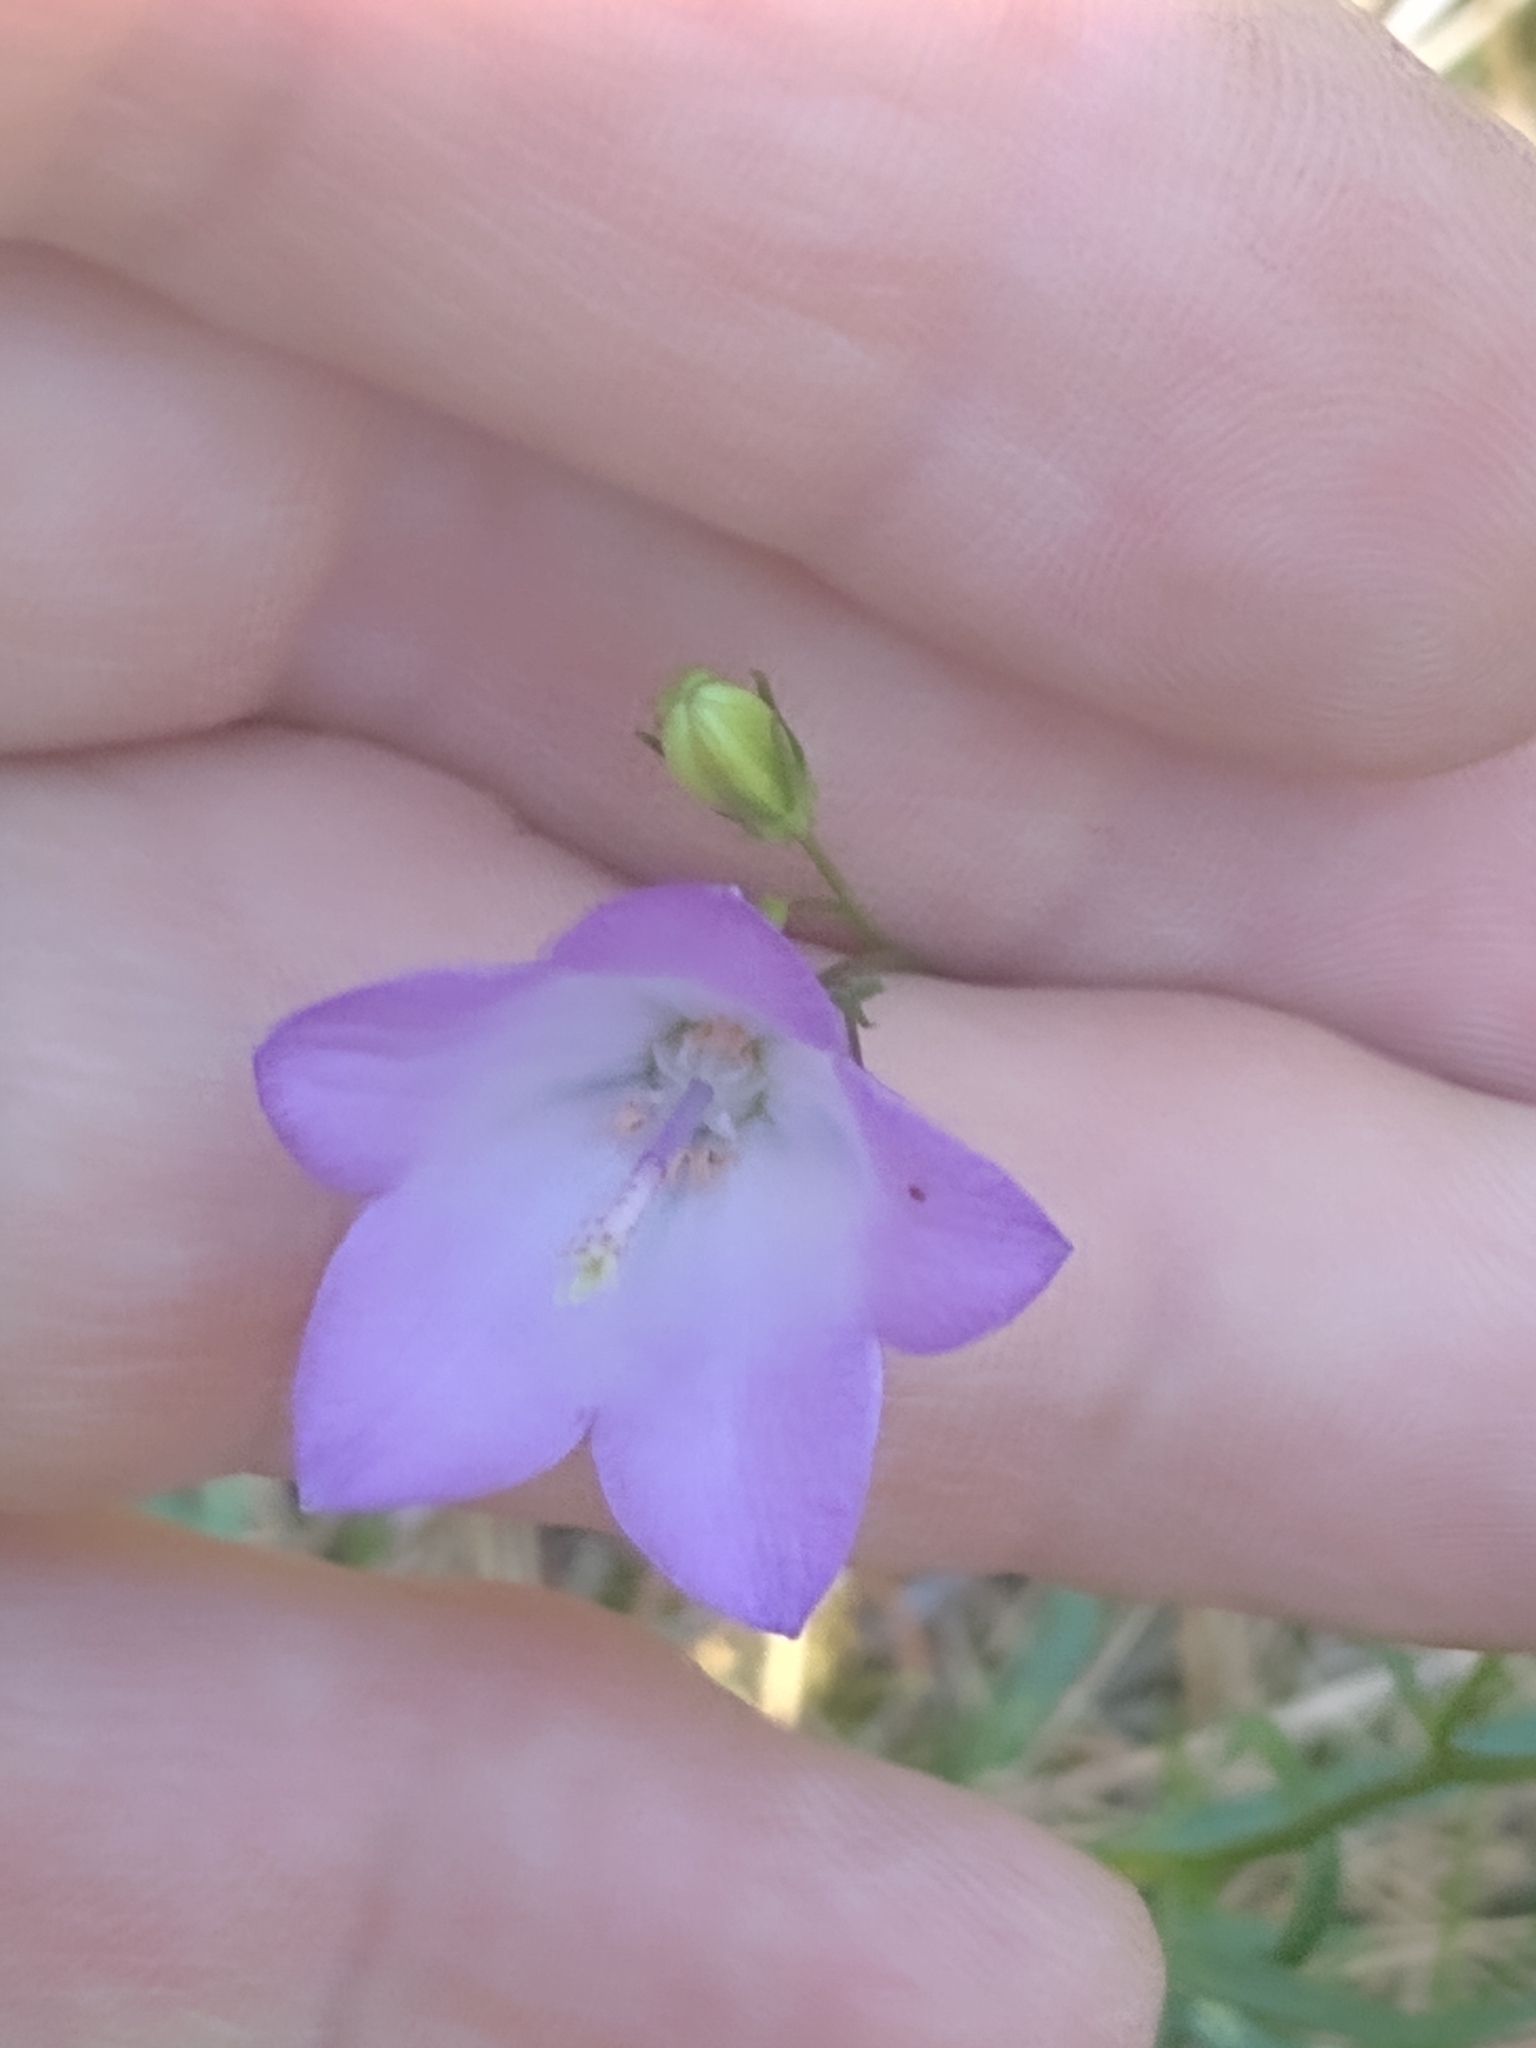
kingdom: Plantae
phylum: Tracheophyta
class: Magnoliopsida
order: Asterales
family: Campanulaceae
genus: Campanula
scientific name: Campanula intercedens
